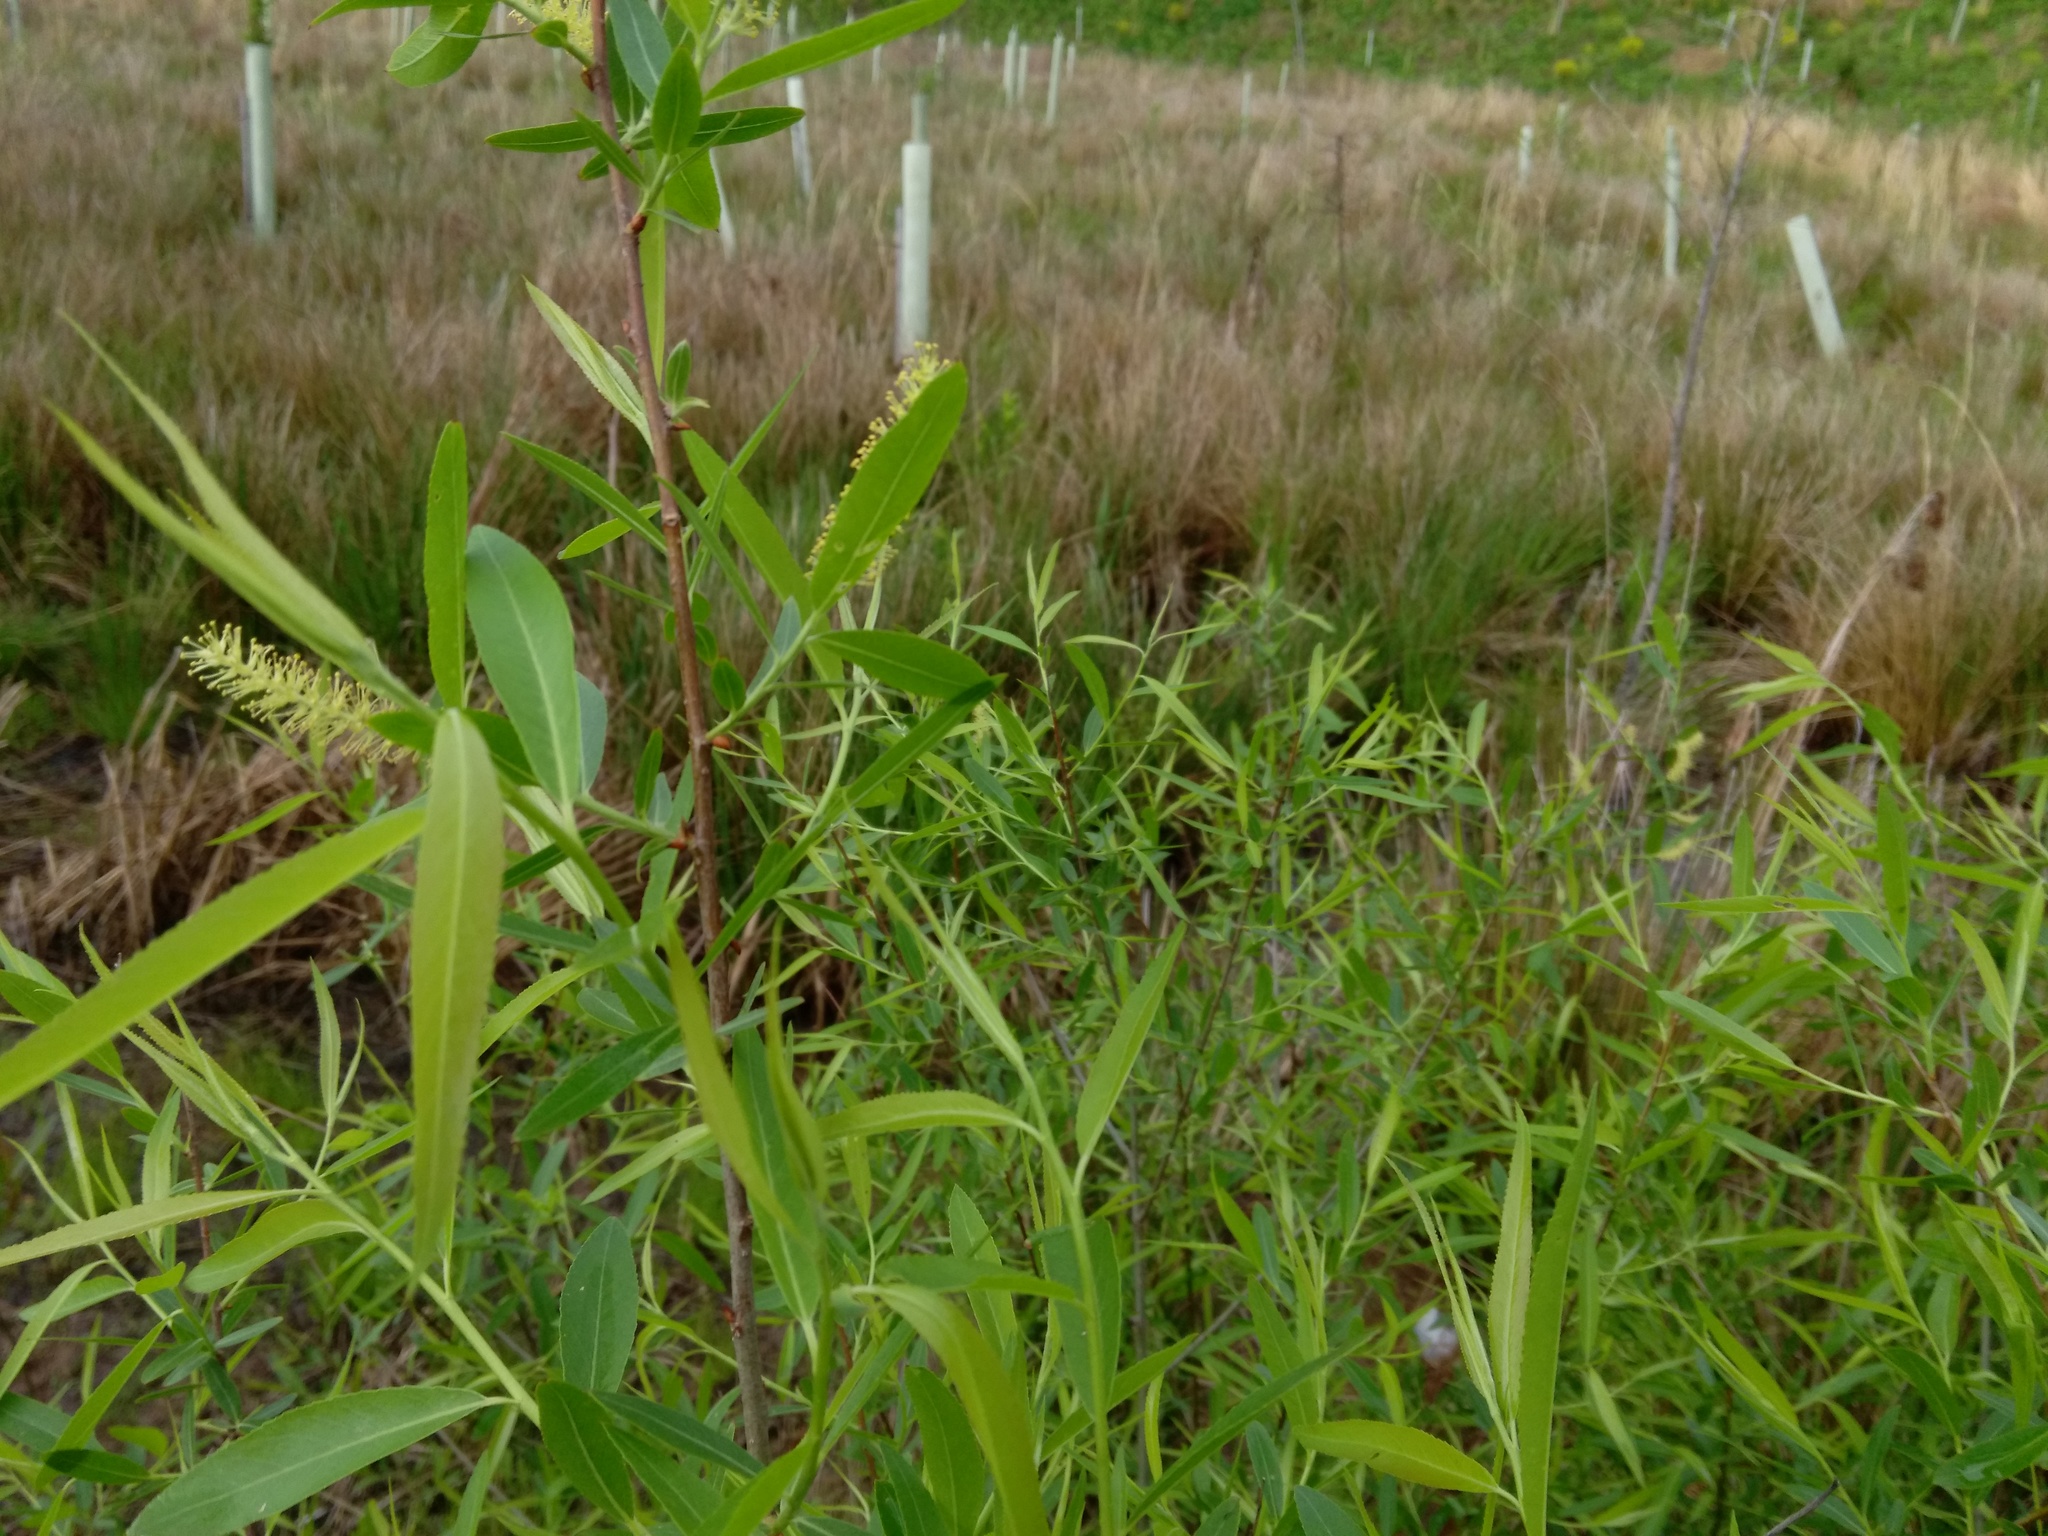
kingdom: Plantae
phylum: Tracheophyta
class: Magnoliopsida
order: Malpighiales
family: Salicaceae
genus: Salix
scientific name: Salix nigra
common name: Black willow
